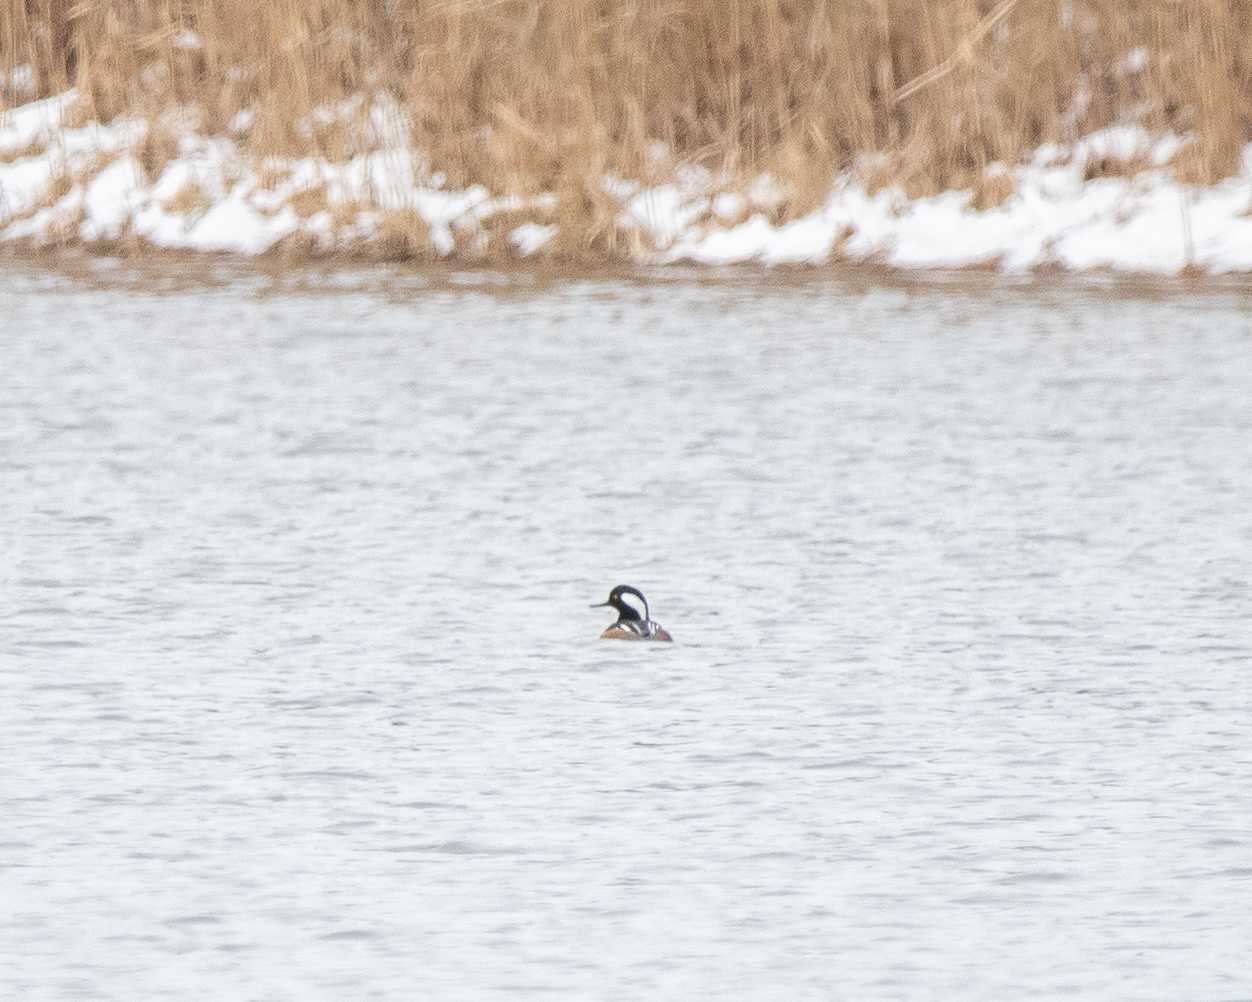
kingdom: Animalia
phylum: Chordata
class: Aves
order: Anseriformes
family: Anatidae
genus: Lophodytes
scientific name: Lophodytes cucullatus
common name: Hooded merganser
